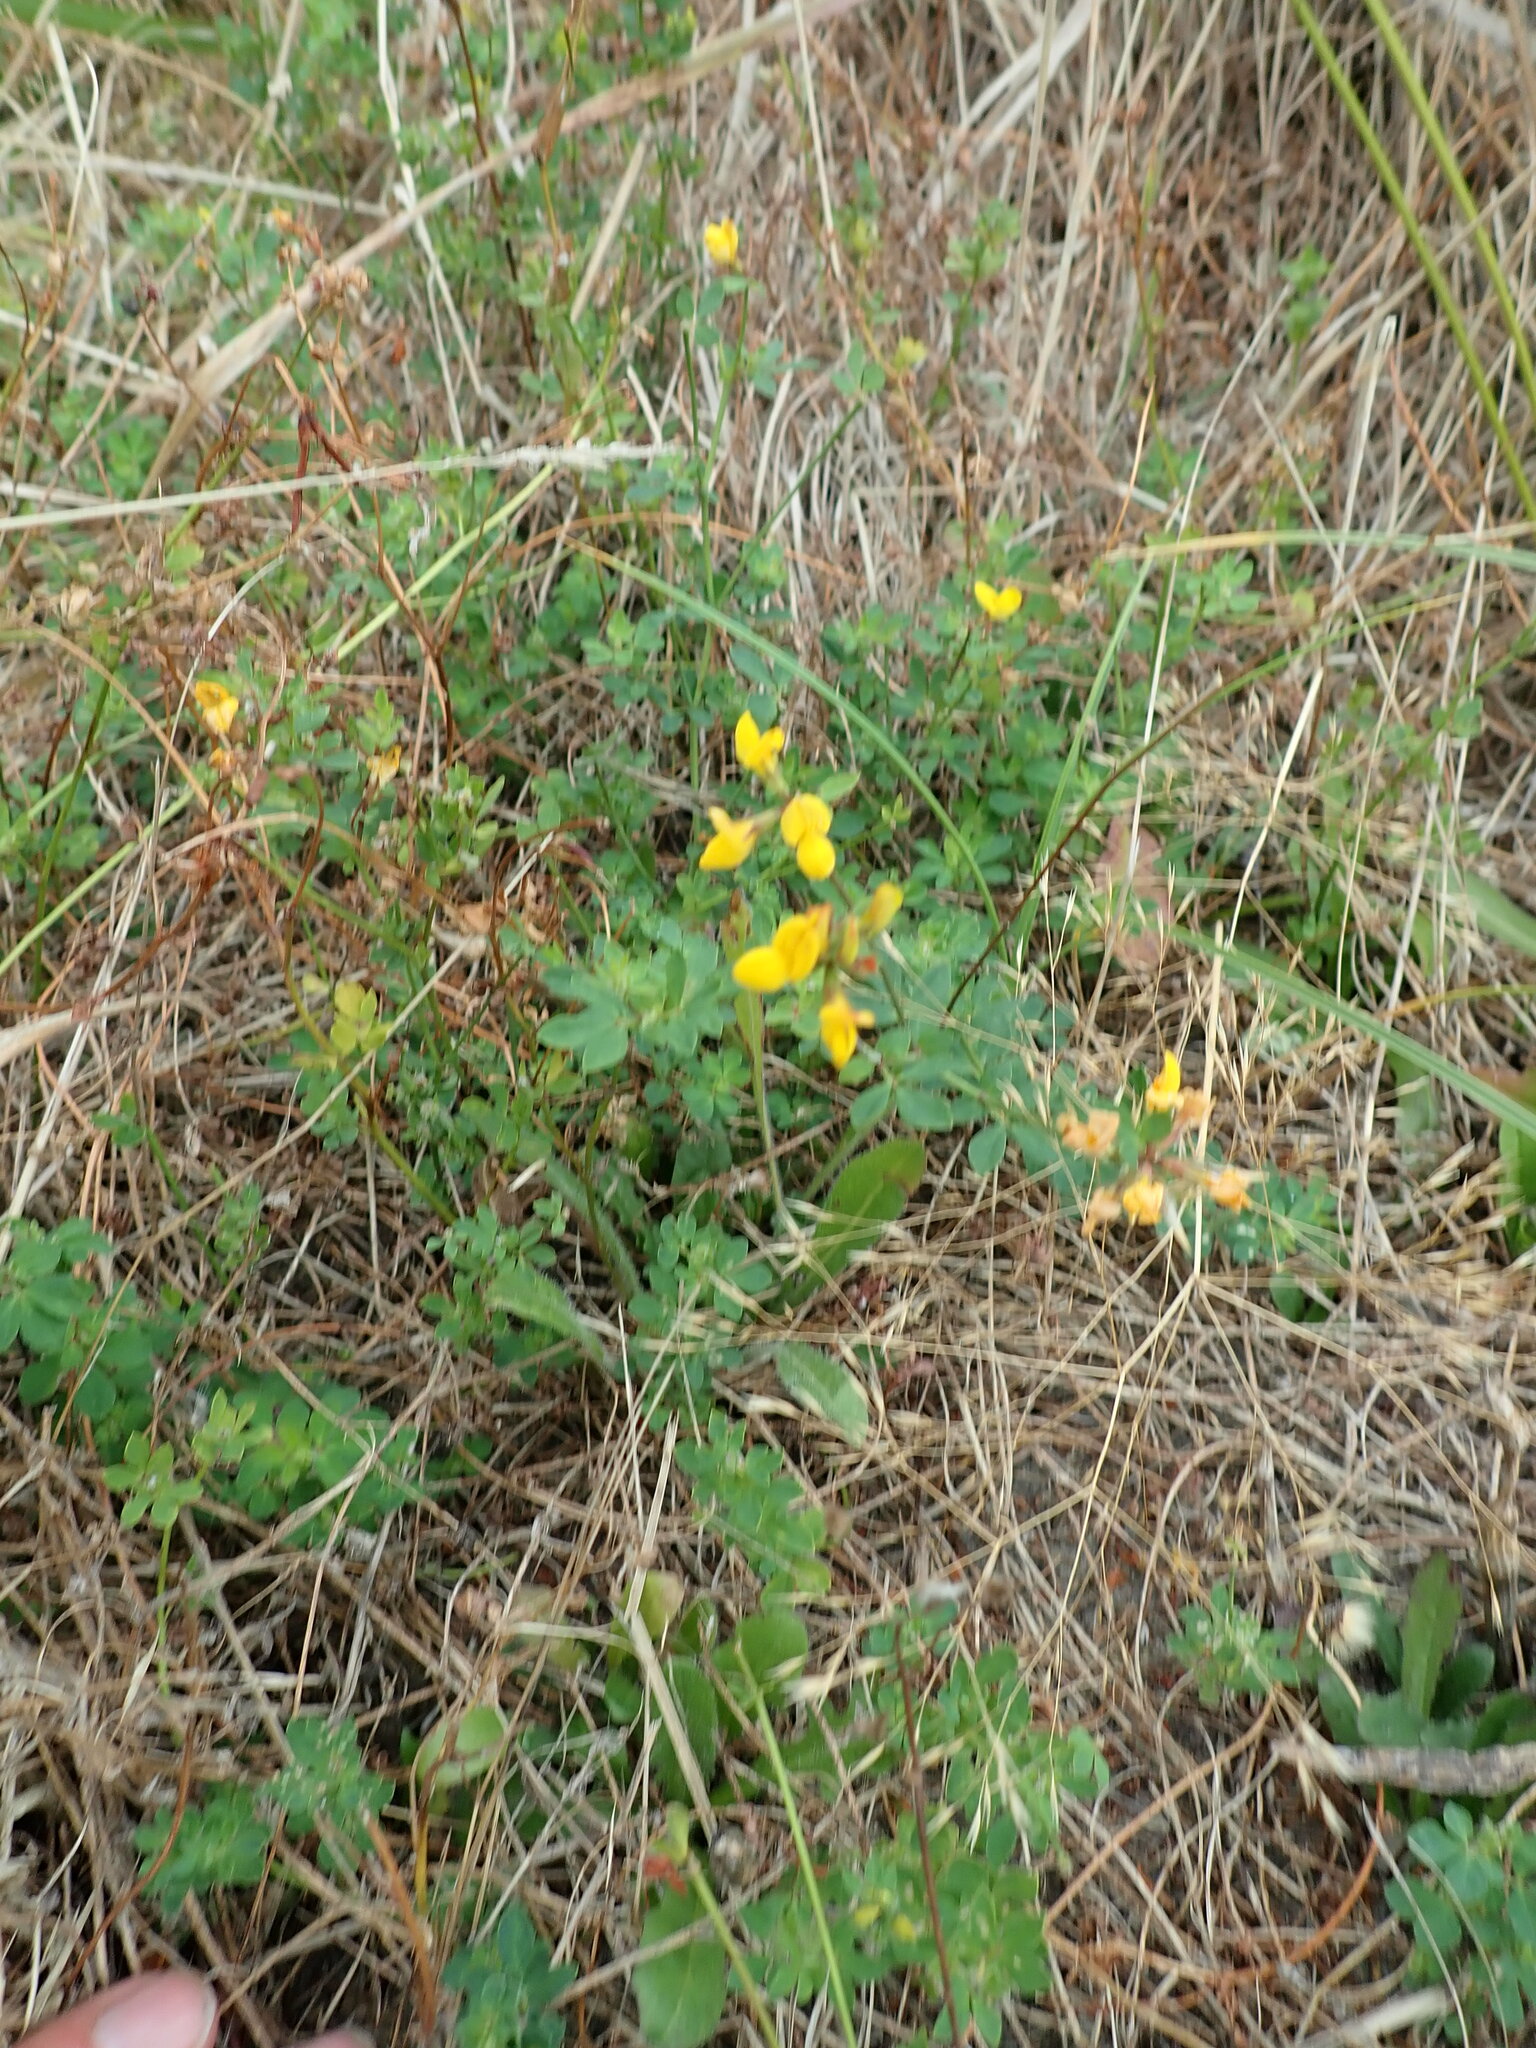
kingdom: Plantae
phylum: Tracheophyta
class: Magnoliopsida
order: Fabales
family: Fabaceae
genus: Lotus
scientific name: Lotus pedunculatus
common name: Greater birdsfoot-trefoil
